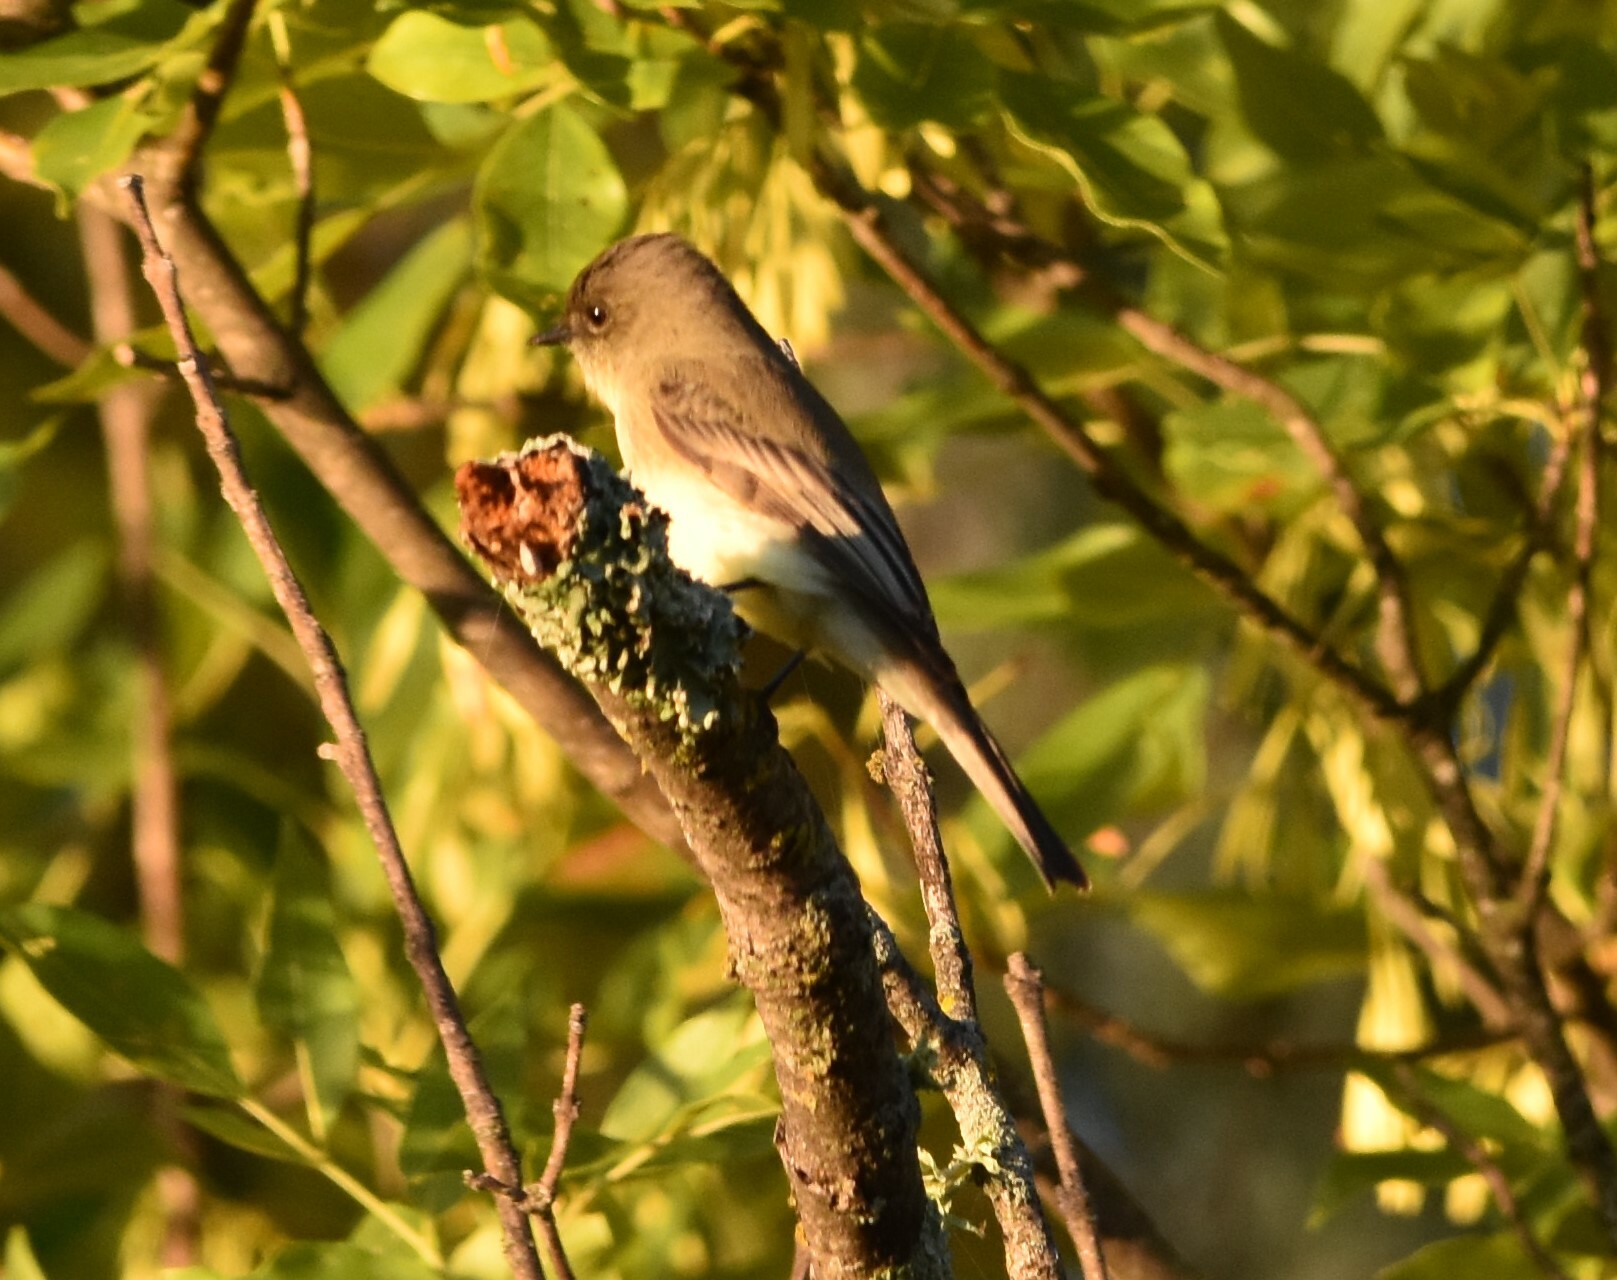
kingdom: Animalia
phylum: Chordata
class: Aves
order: Passeriformes
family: Tyrannidae
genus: Sayornis
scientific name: Sayornis phoebe
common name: Eastern phoebe
